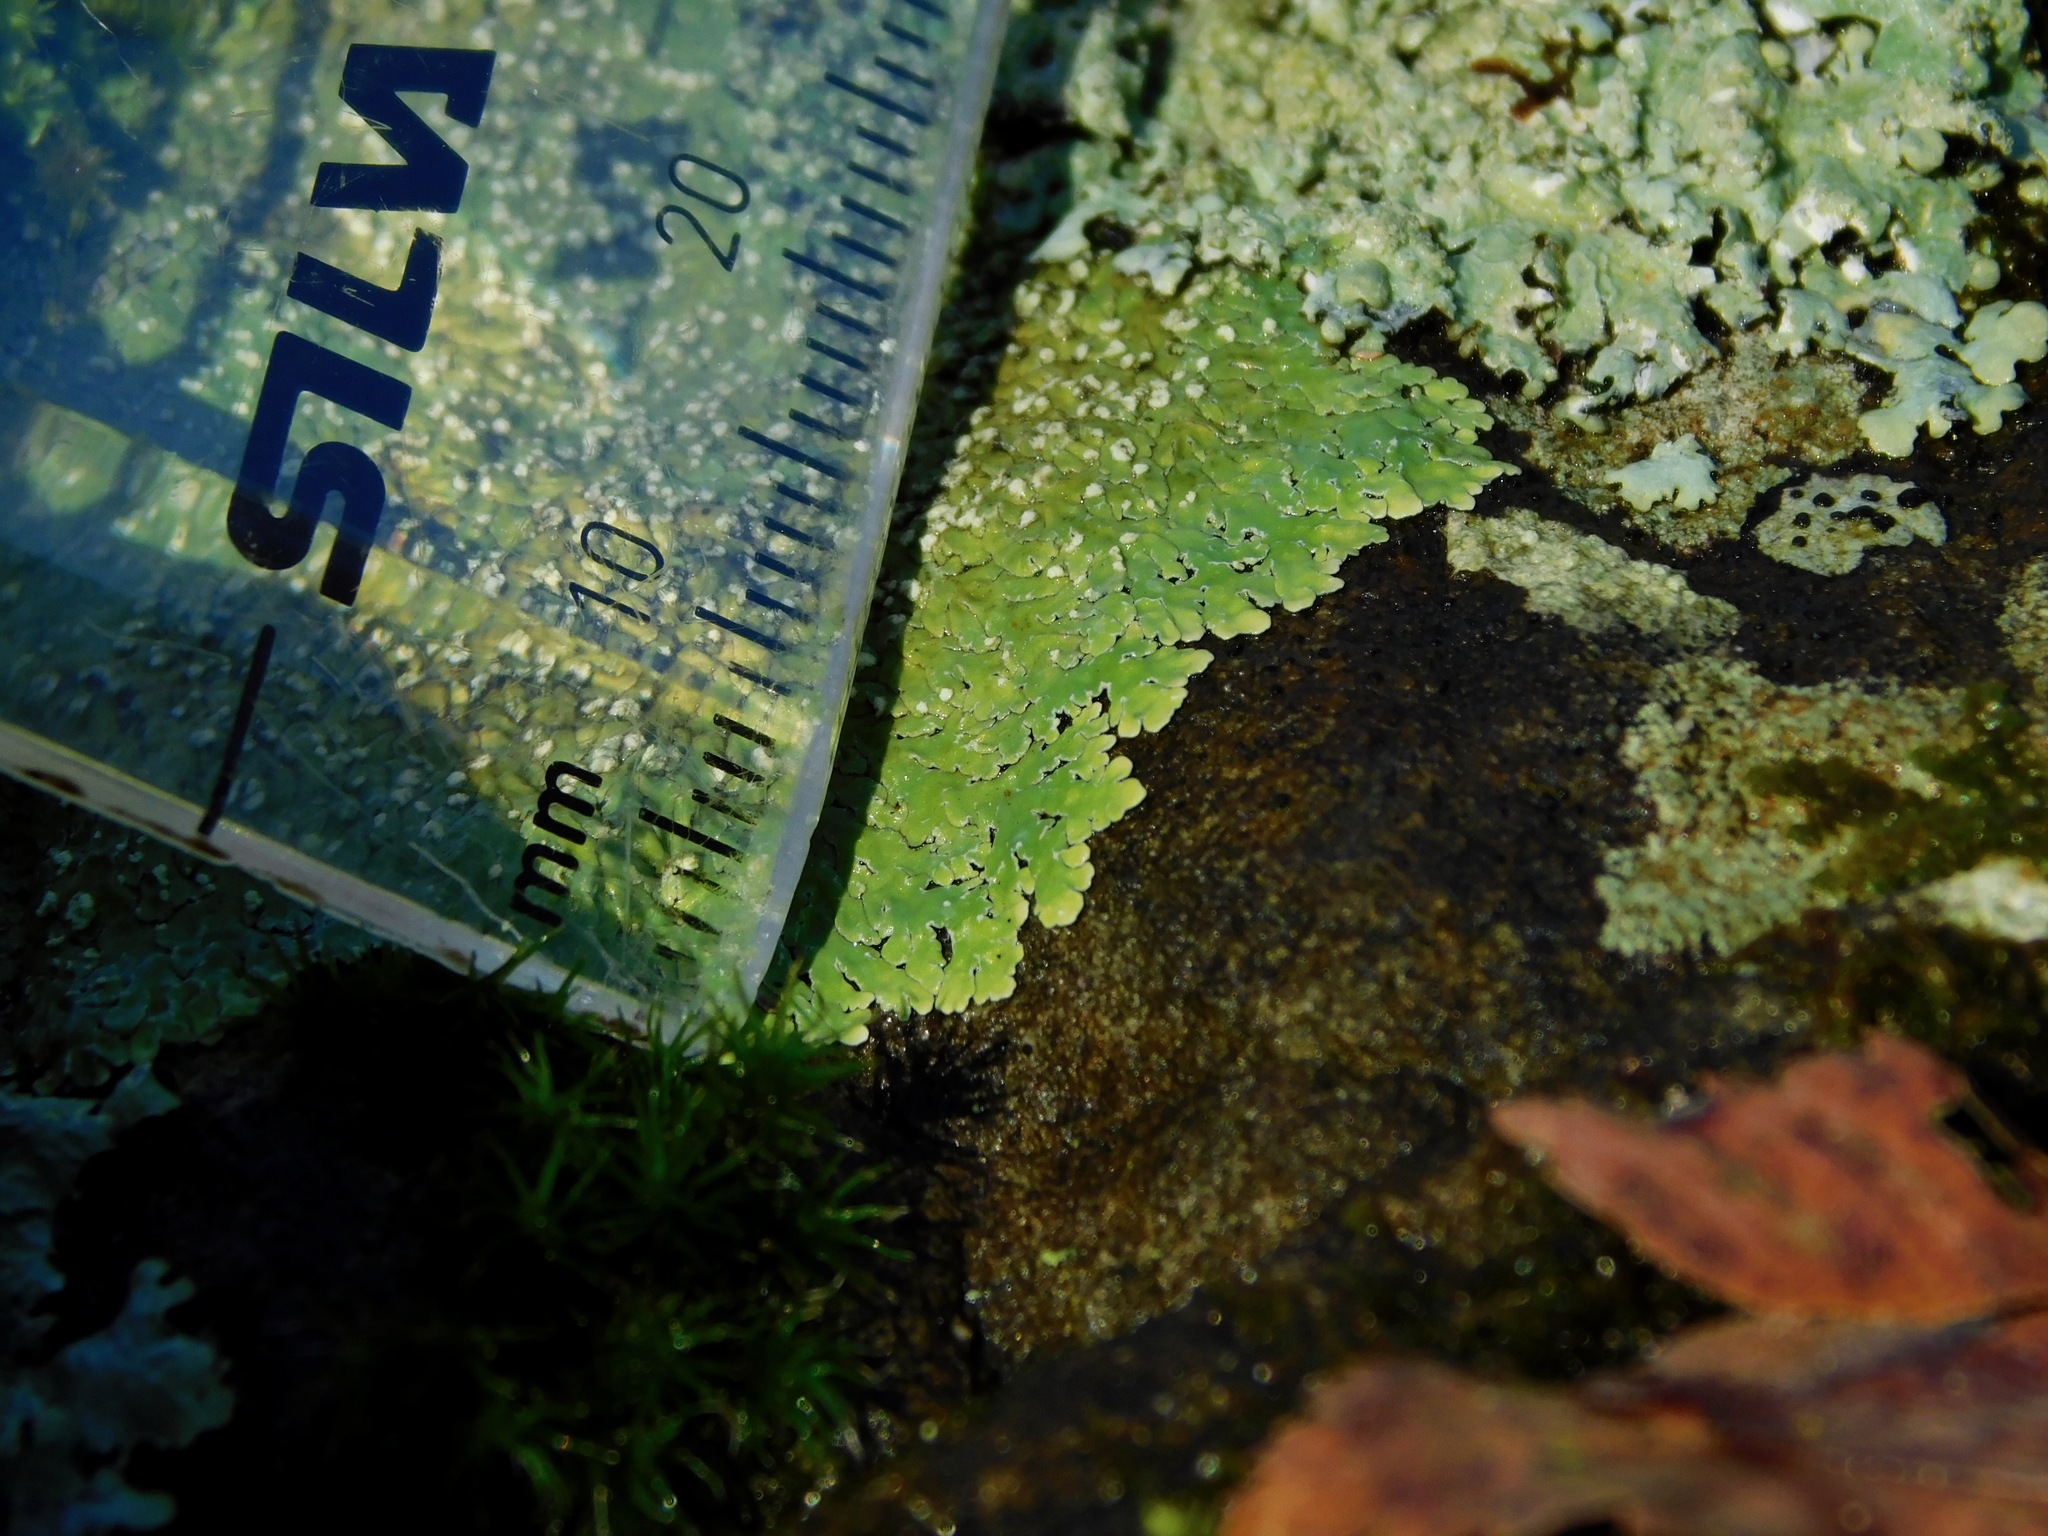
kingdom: Fungi
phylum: Ascomycota
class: Lecanoromycetes
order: Caliciales
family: Physciaceae
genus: Physcia
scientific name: Physcia americana
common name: American rosette lichen
